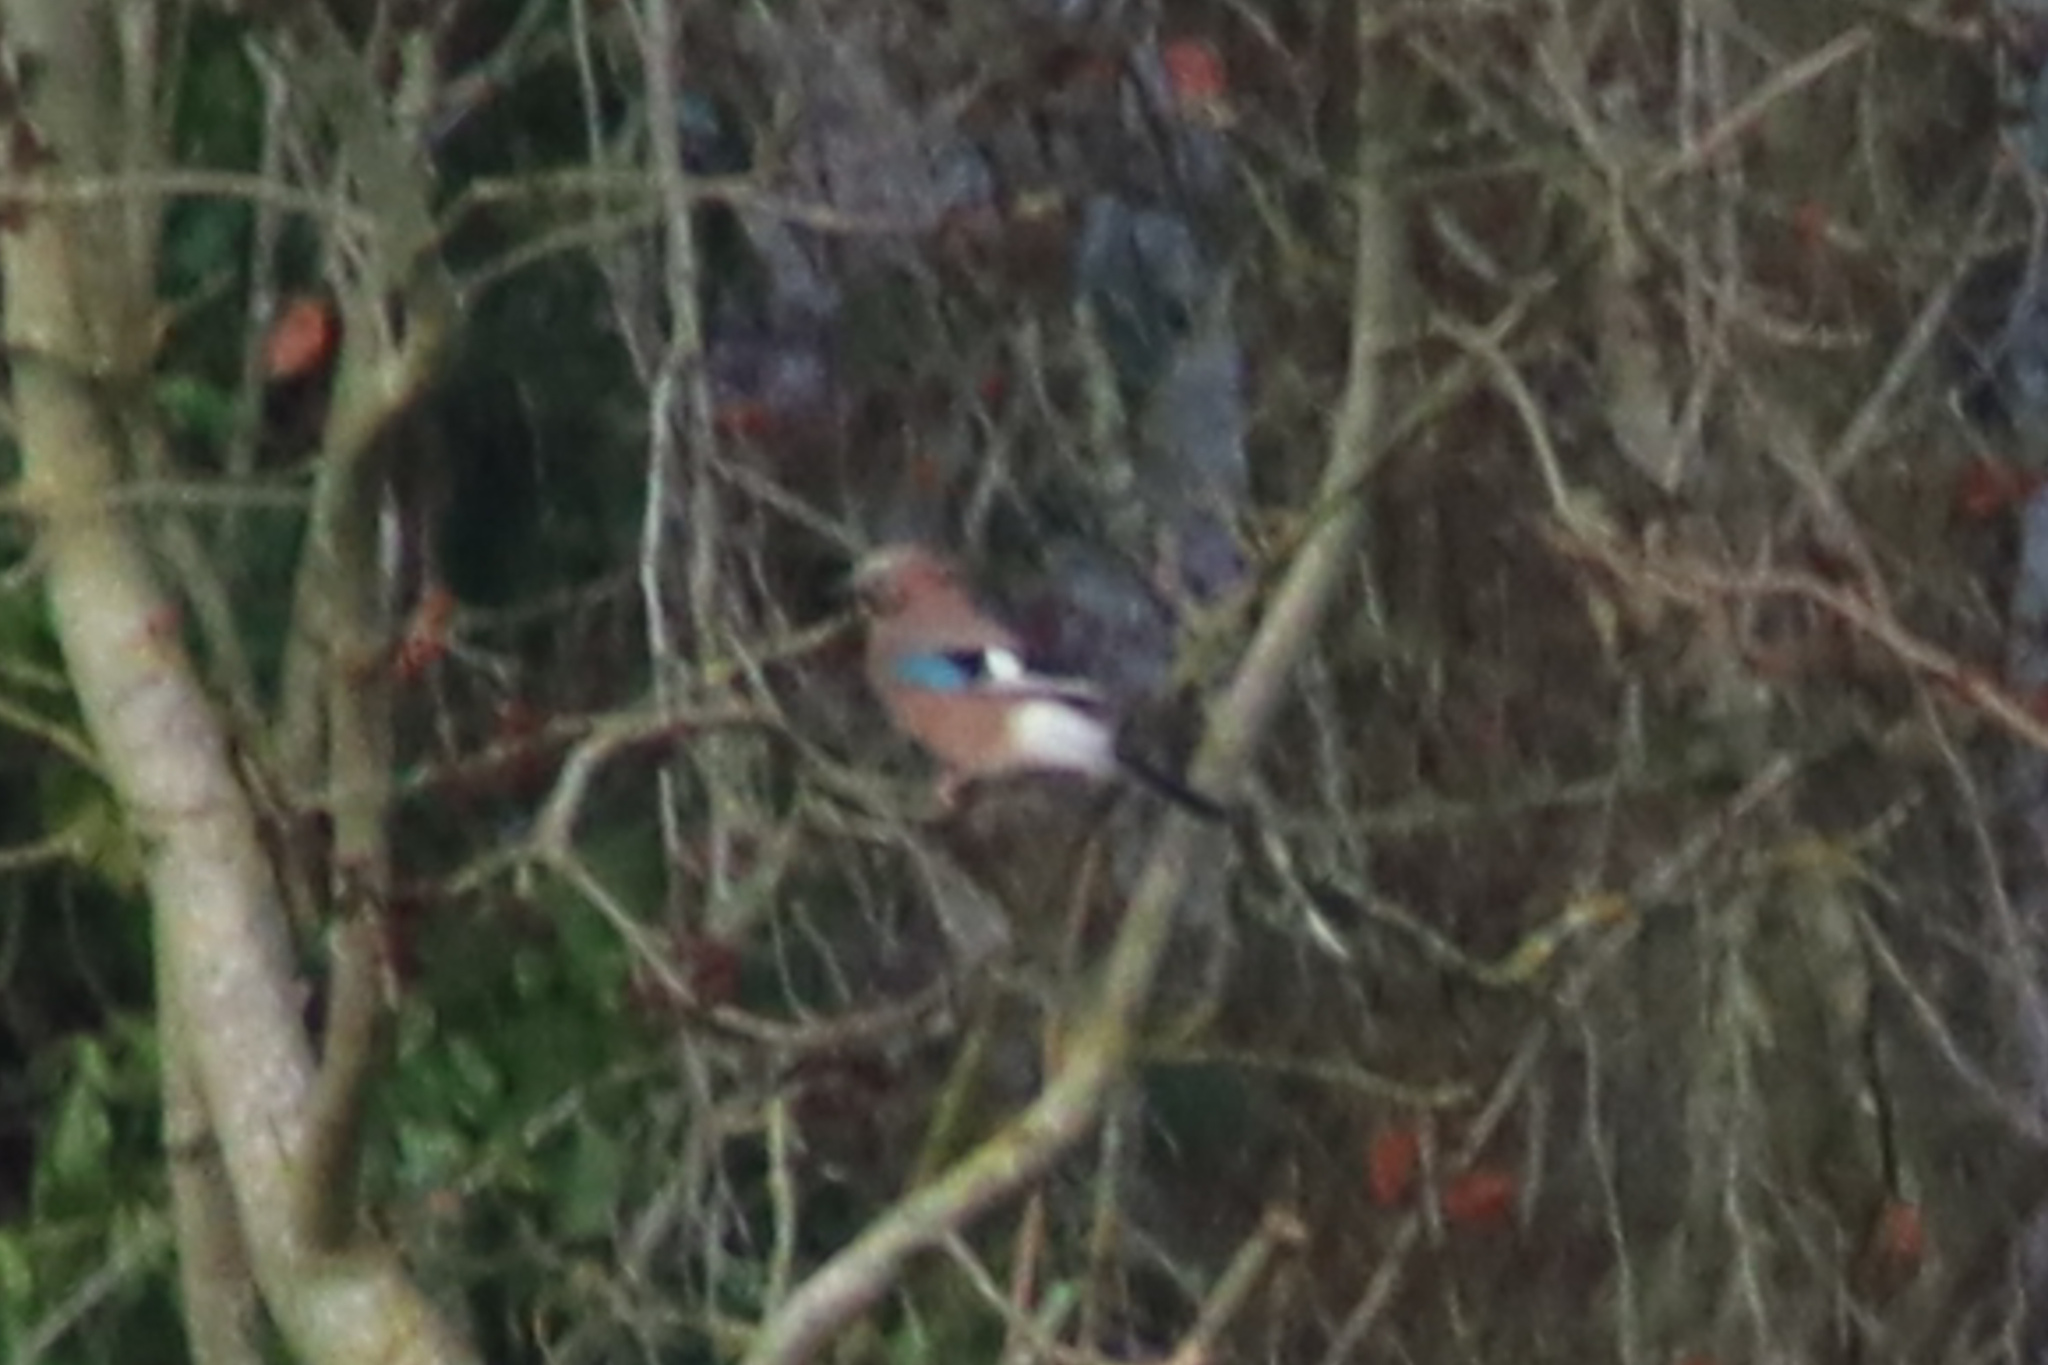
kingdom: Animalia
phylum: Chordata
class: Aves
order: Passeriformes
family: Corvidae
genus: Garrulus
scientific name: Garrulus glandarius
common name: Eurasian jay
